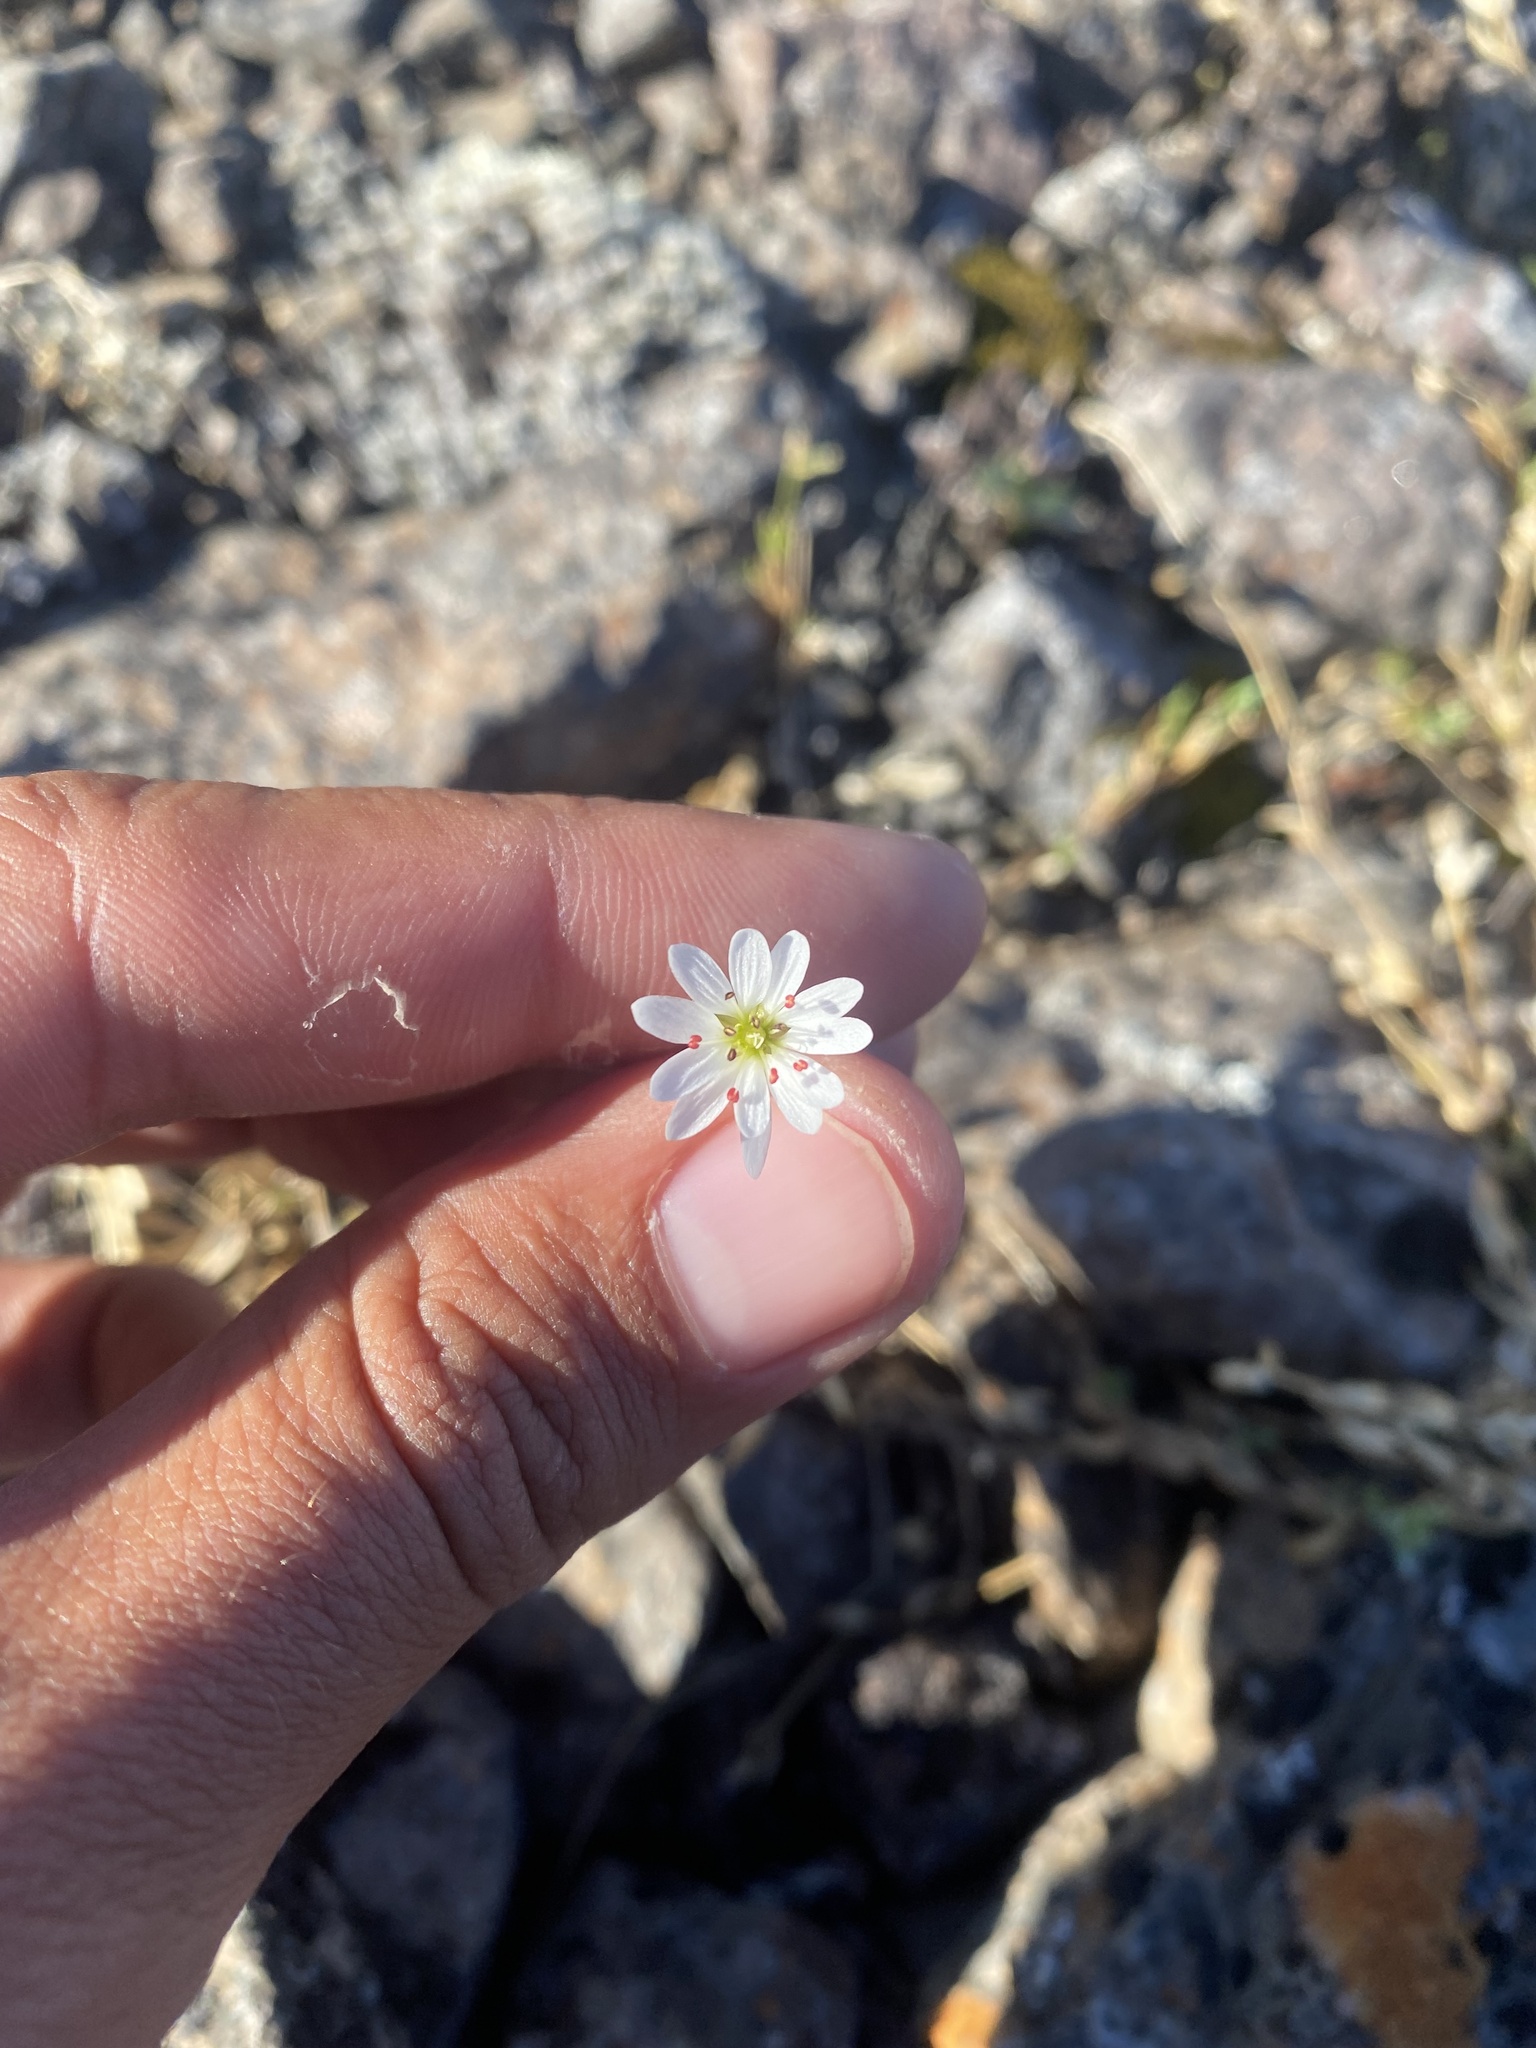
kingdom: Plantae
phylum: Tracheophyta
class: Magnoliopsida
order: Caryophyllales
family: Caryophyllaceae
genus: Stellaria
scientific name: Stellaria peduncularis
